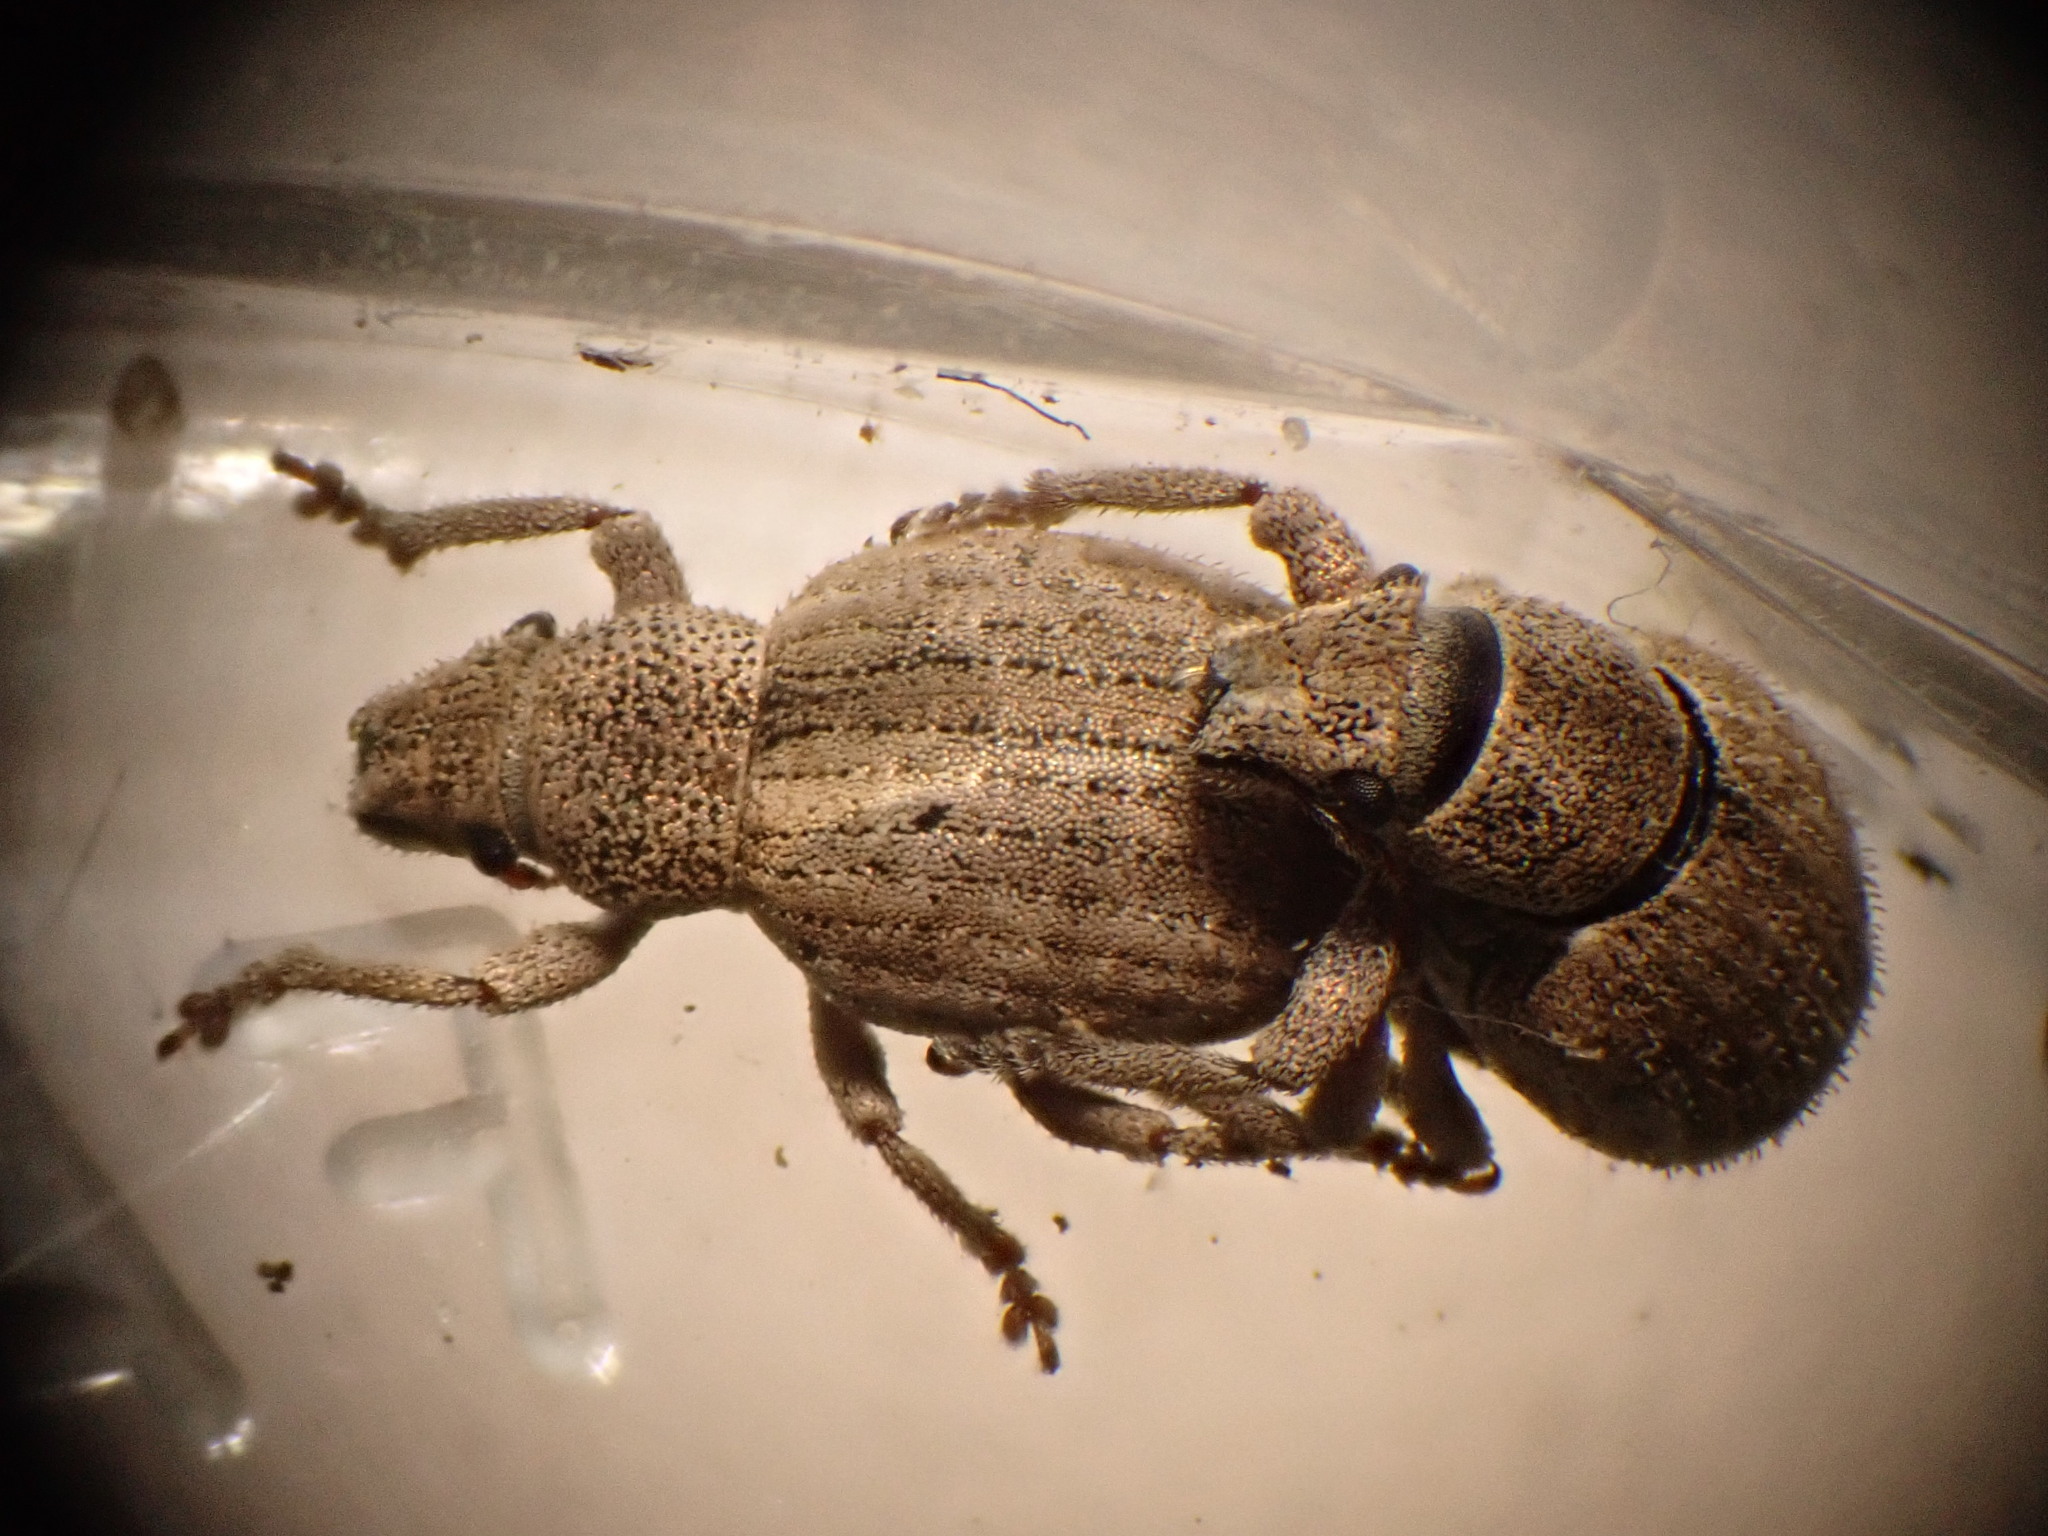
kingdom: Animalia
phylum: Arthropoda
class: Insecta
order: Coleoptera
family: Curculionidae
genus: Strophosoma
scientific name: Strophosoma capitatum
